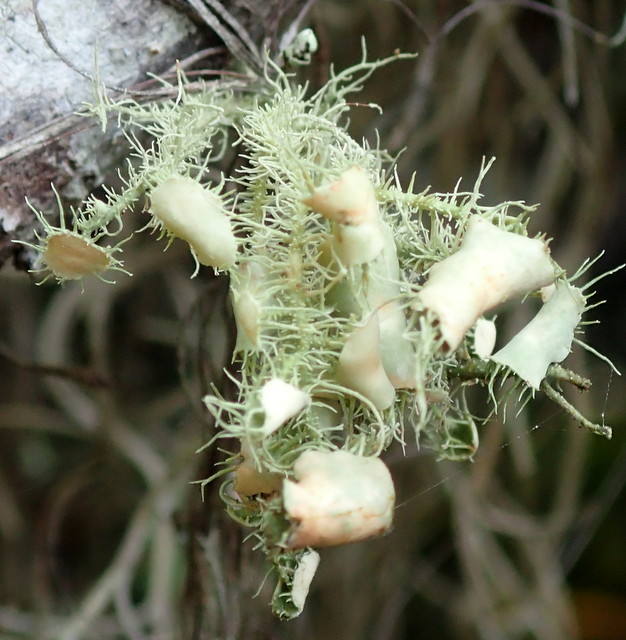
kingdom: Fungi
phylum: Ascomycota
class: Lecanoromycetes
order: Lecanorales
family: Parmeliaceae
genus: Usnea
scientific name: Usnea strigosa
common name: Bushy beard lichen
